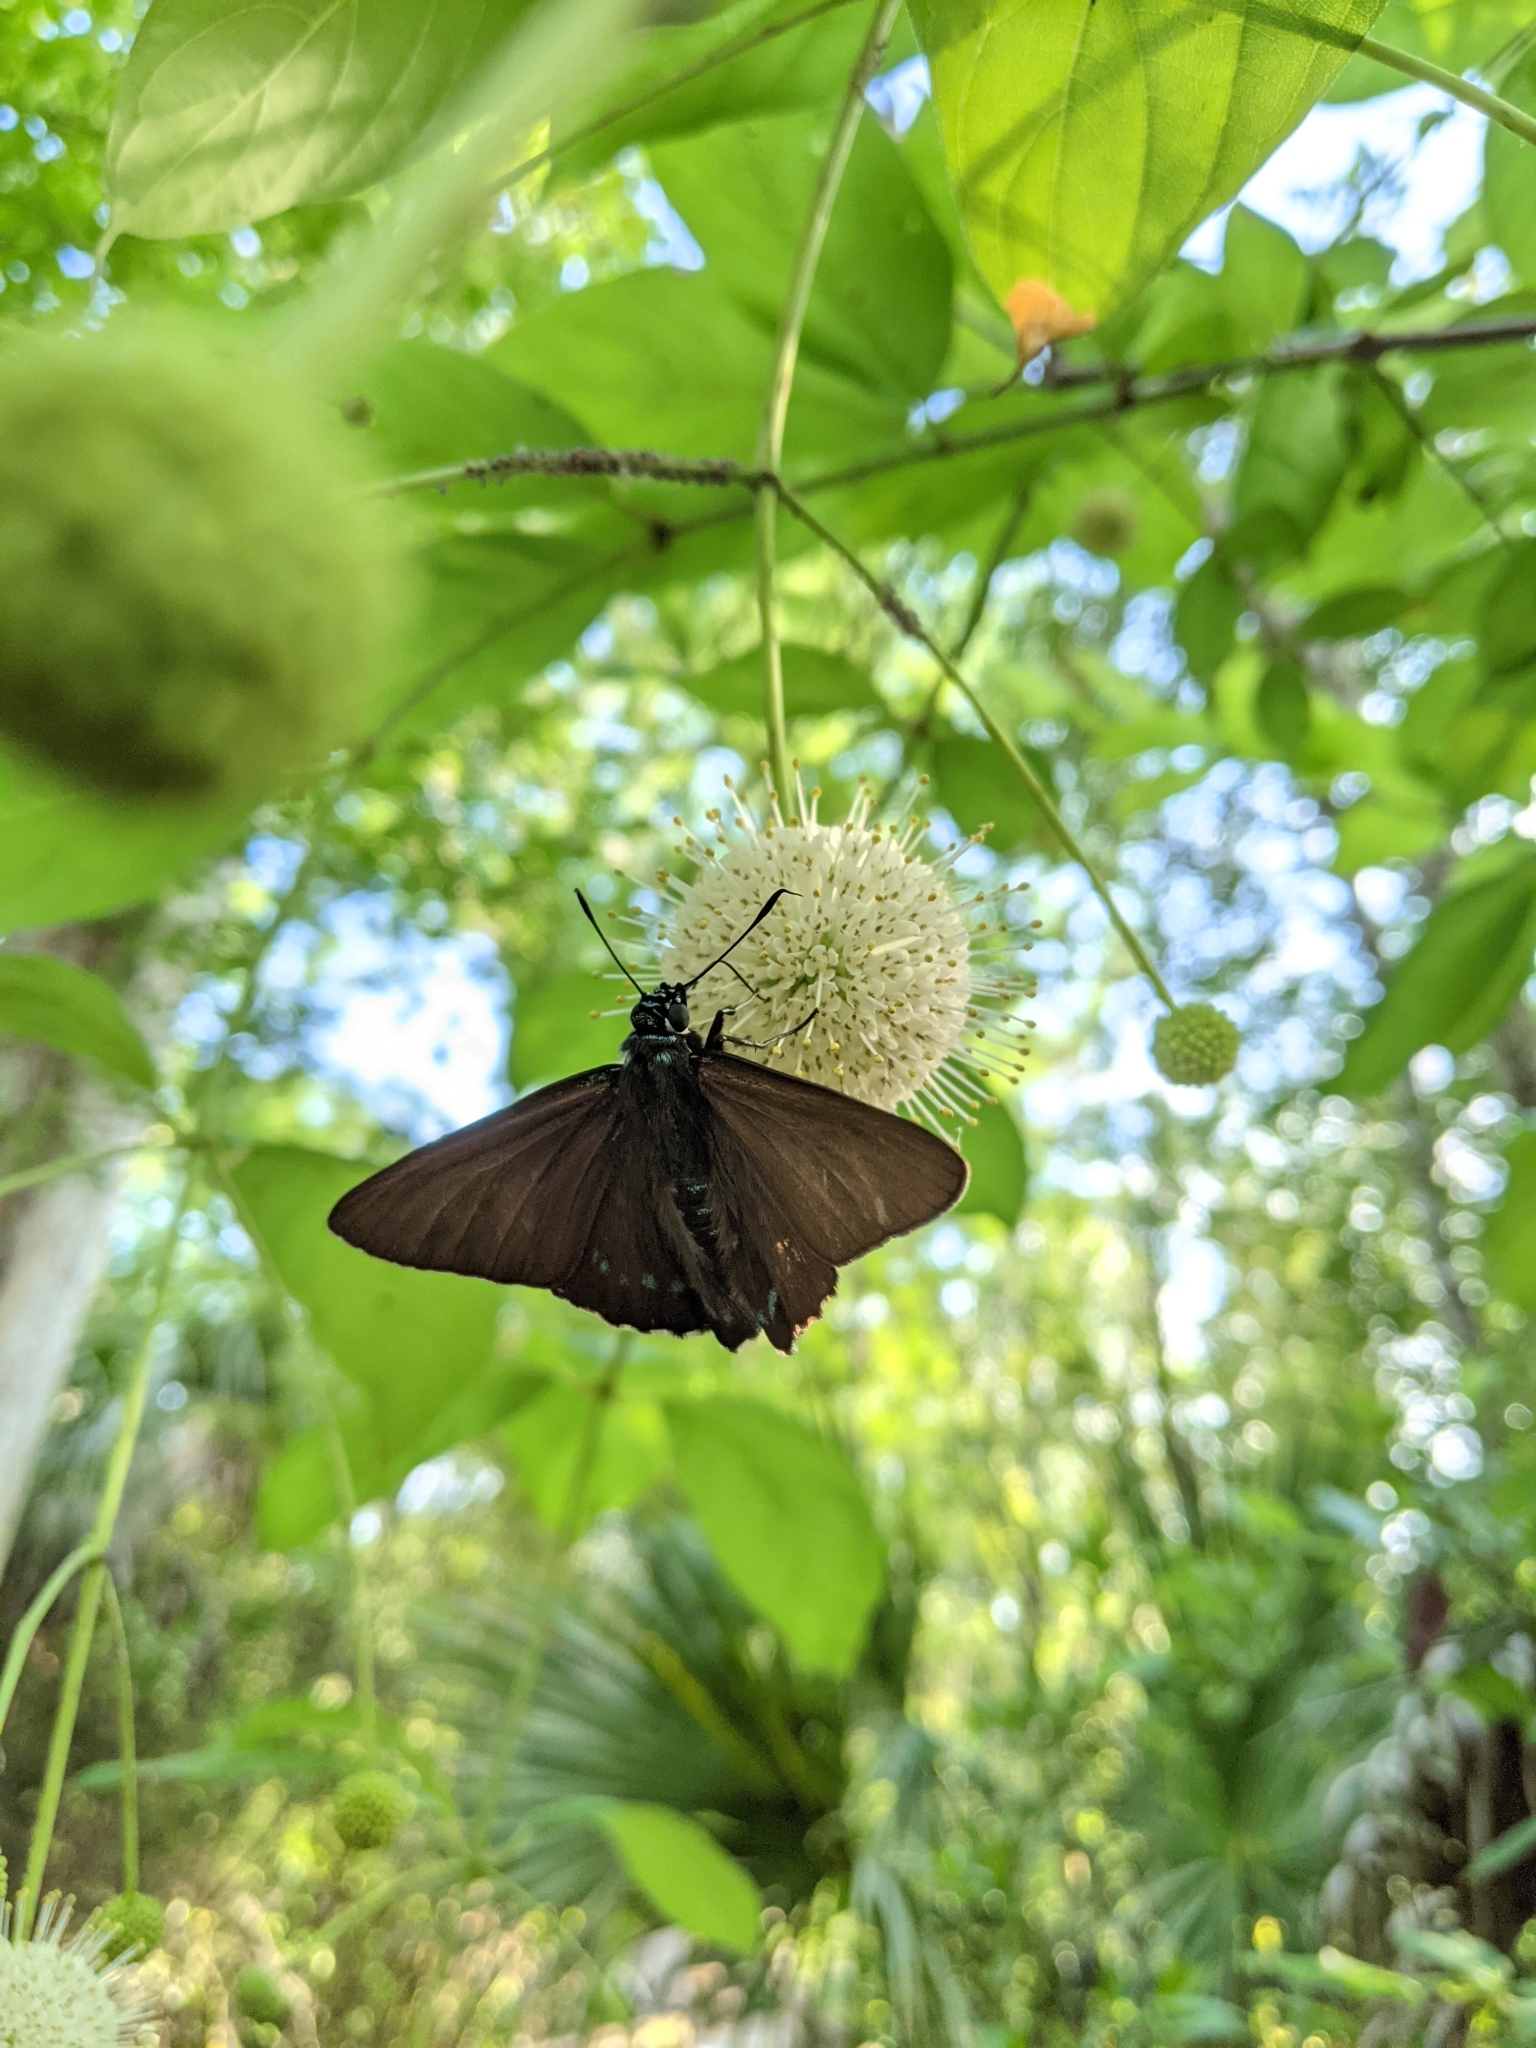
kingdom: Animalia
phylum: Arthropoda
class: Insecta
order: Lepidoptera
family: Hesperiidae
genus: Phocides
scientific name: Phocides pigmalion
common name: Mangrove skipper
